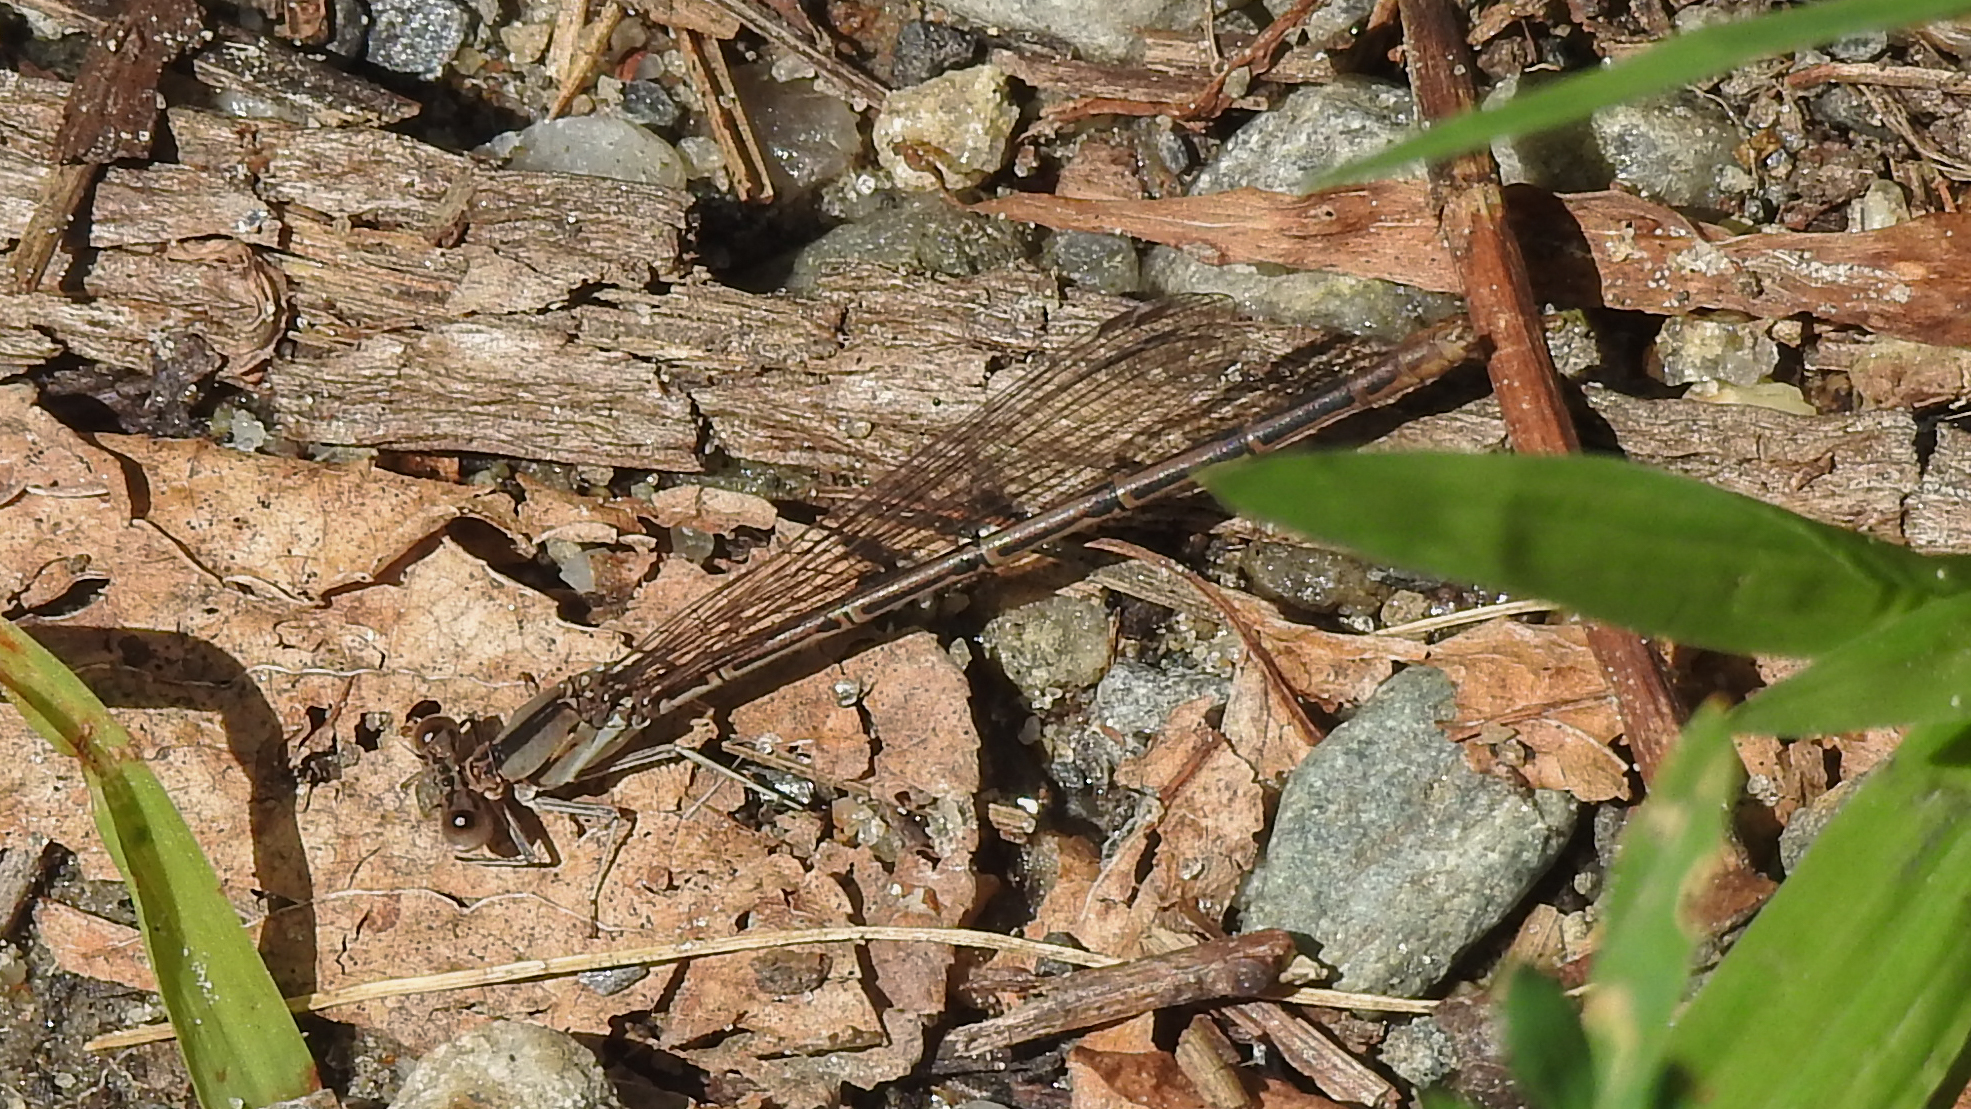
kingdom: Animalia
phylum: Arthropoda
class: Insecta
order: Odonata
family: Coenagrionidae
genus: Argia
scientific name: Argia fumipennis
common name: Variable dancer
